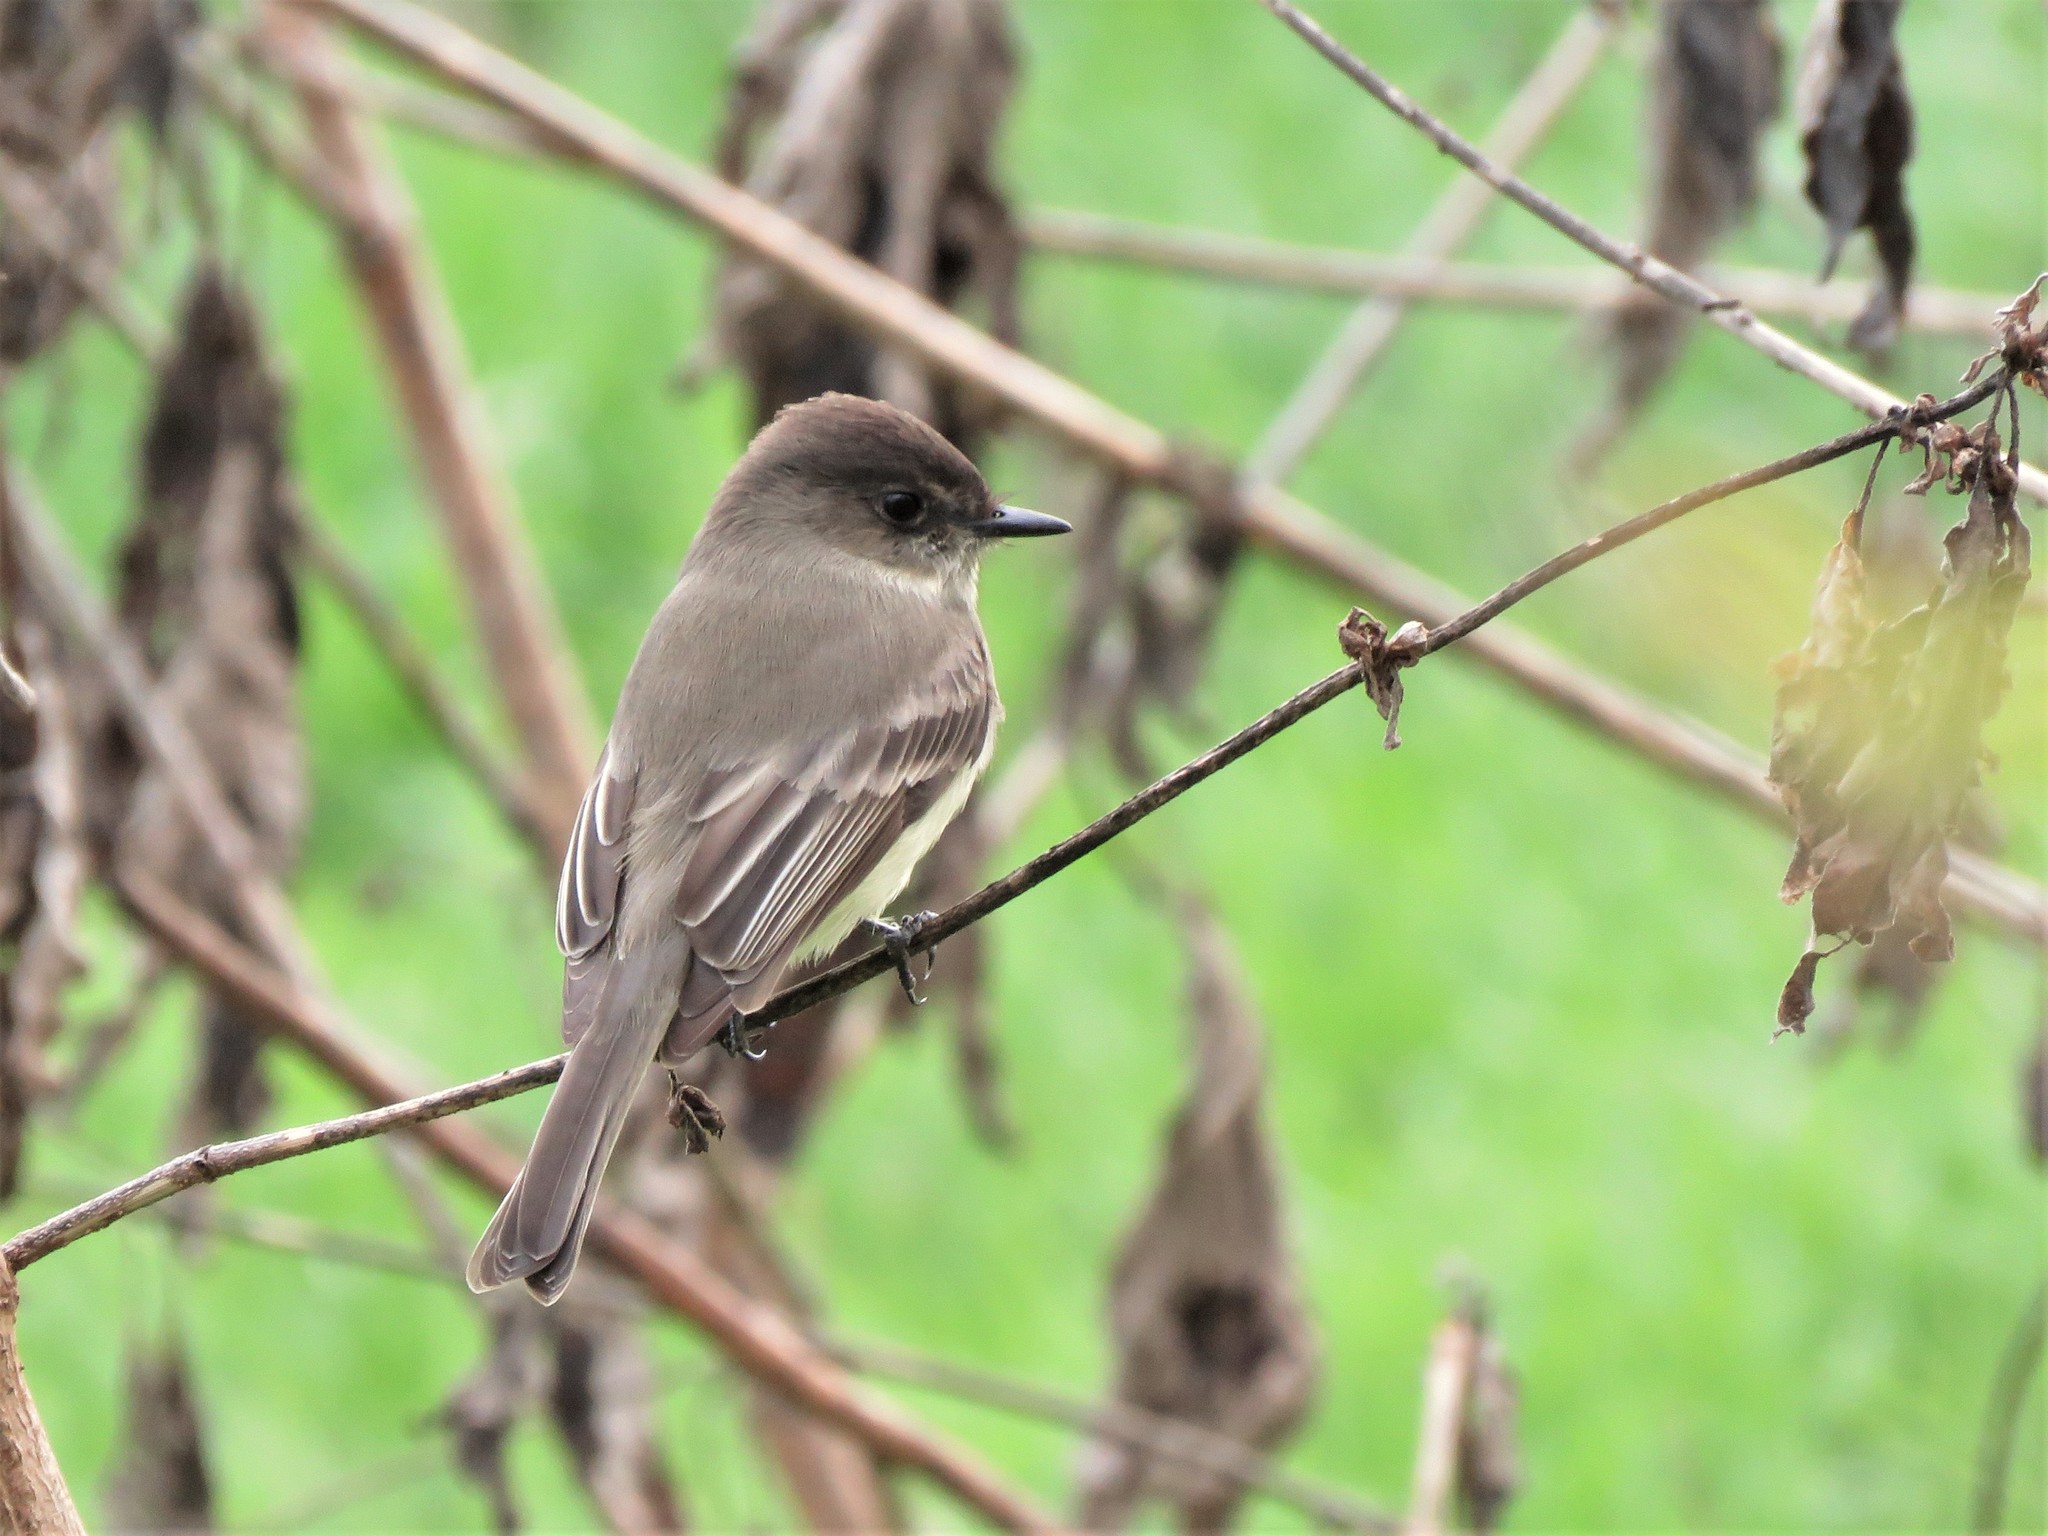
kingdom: Animalia
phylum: Chordata
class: Aves
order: Passeriformes
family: Tyrannidae
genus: Sayornis
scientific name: Sayornis phoebe
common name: Eastern phoebe
